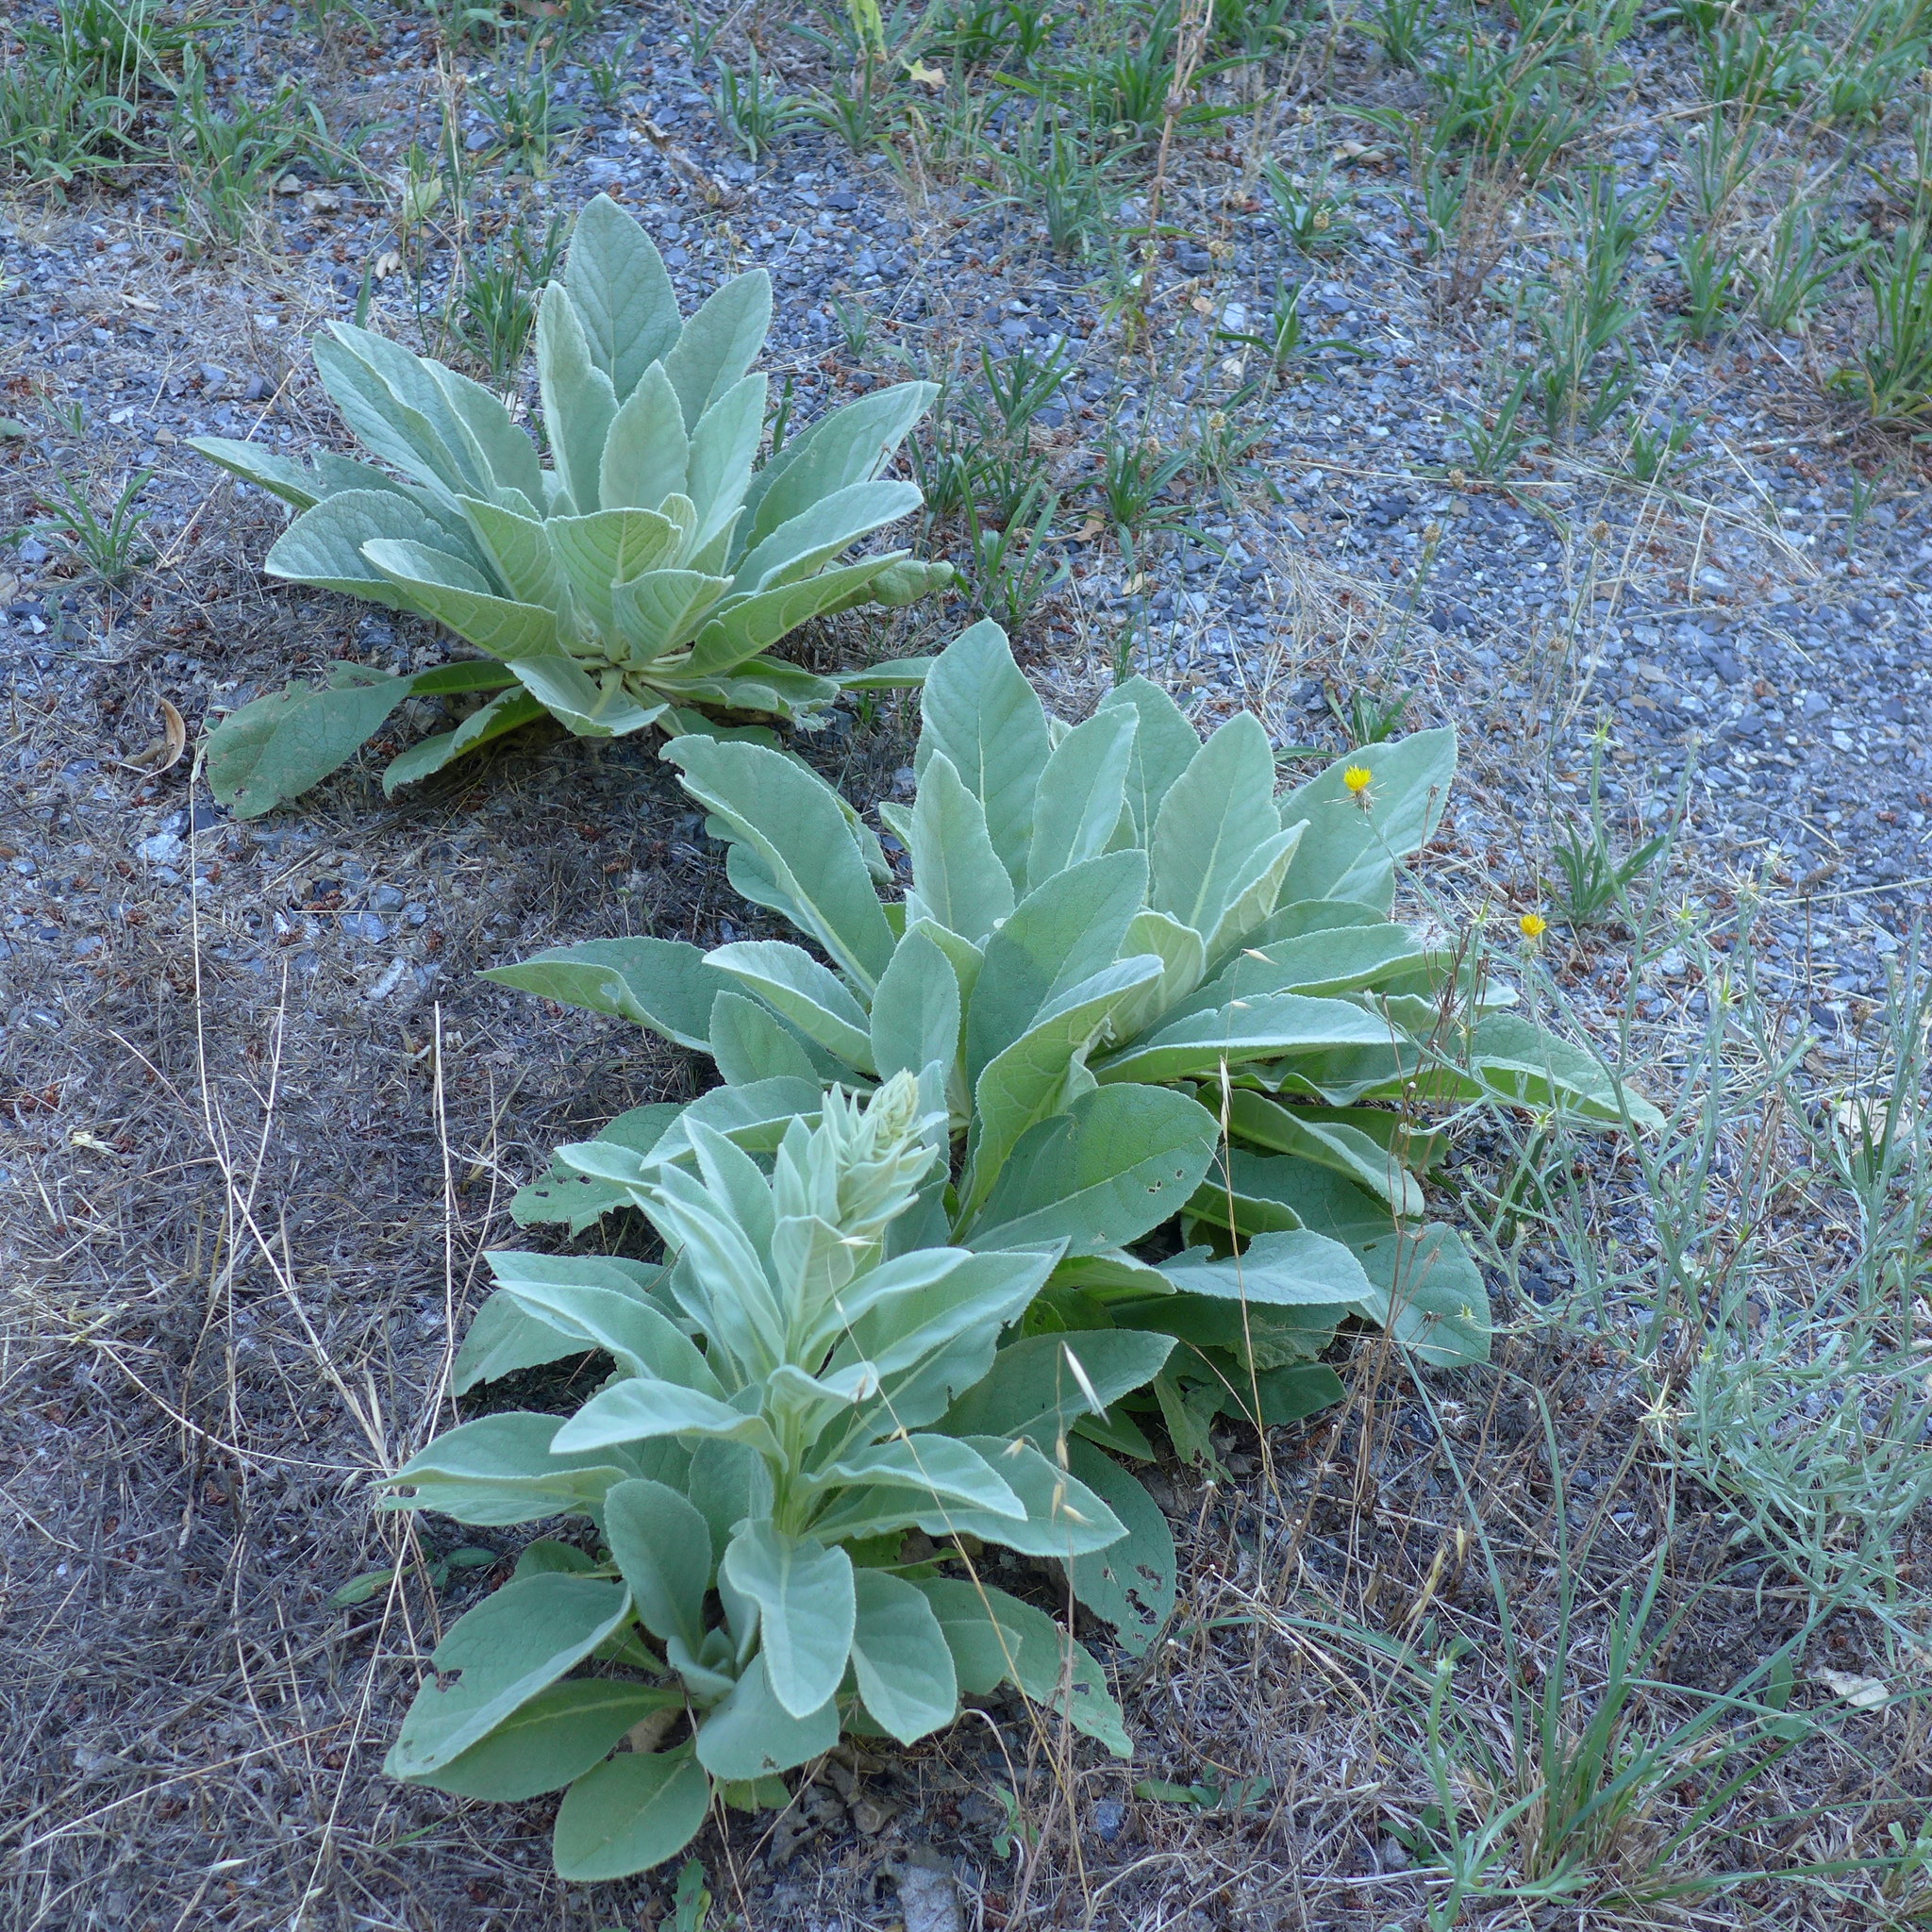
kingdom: Plantae
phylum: Tracheophyta
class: Magnoliopsida
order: Lamiales
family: Scrophulariaceae
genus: Verbascum
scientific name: Verbascum thapsus
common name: Common mullein
